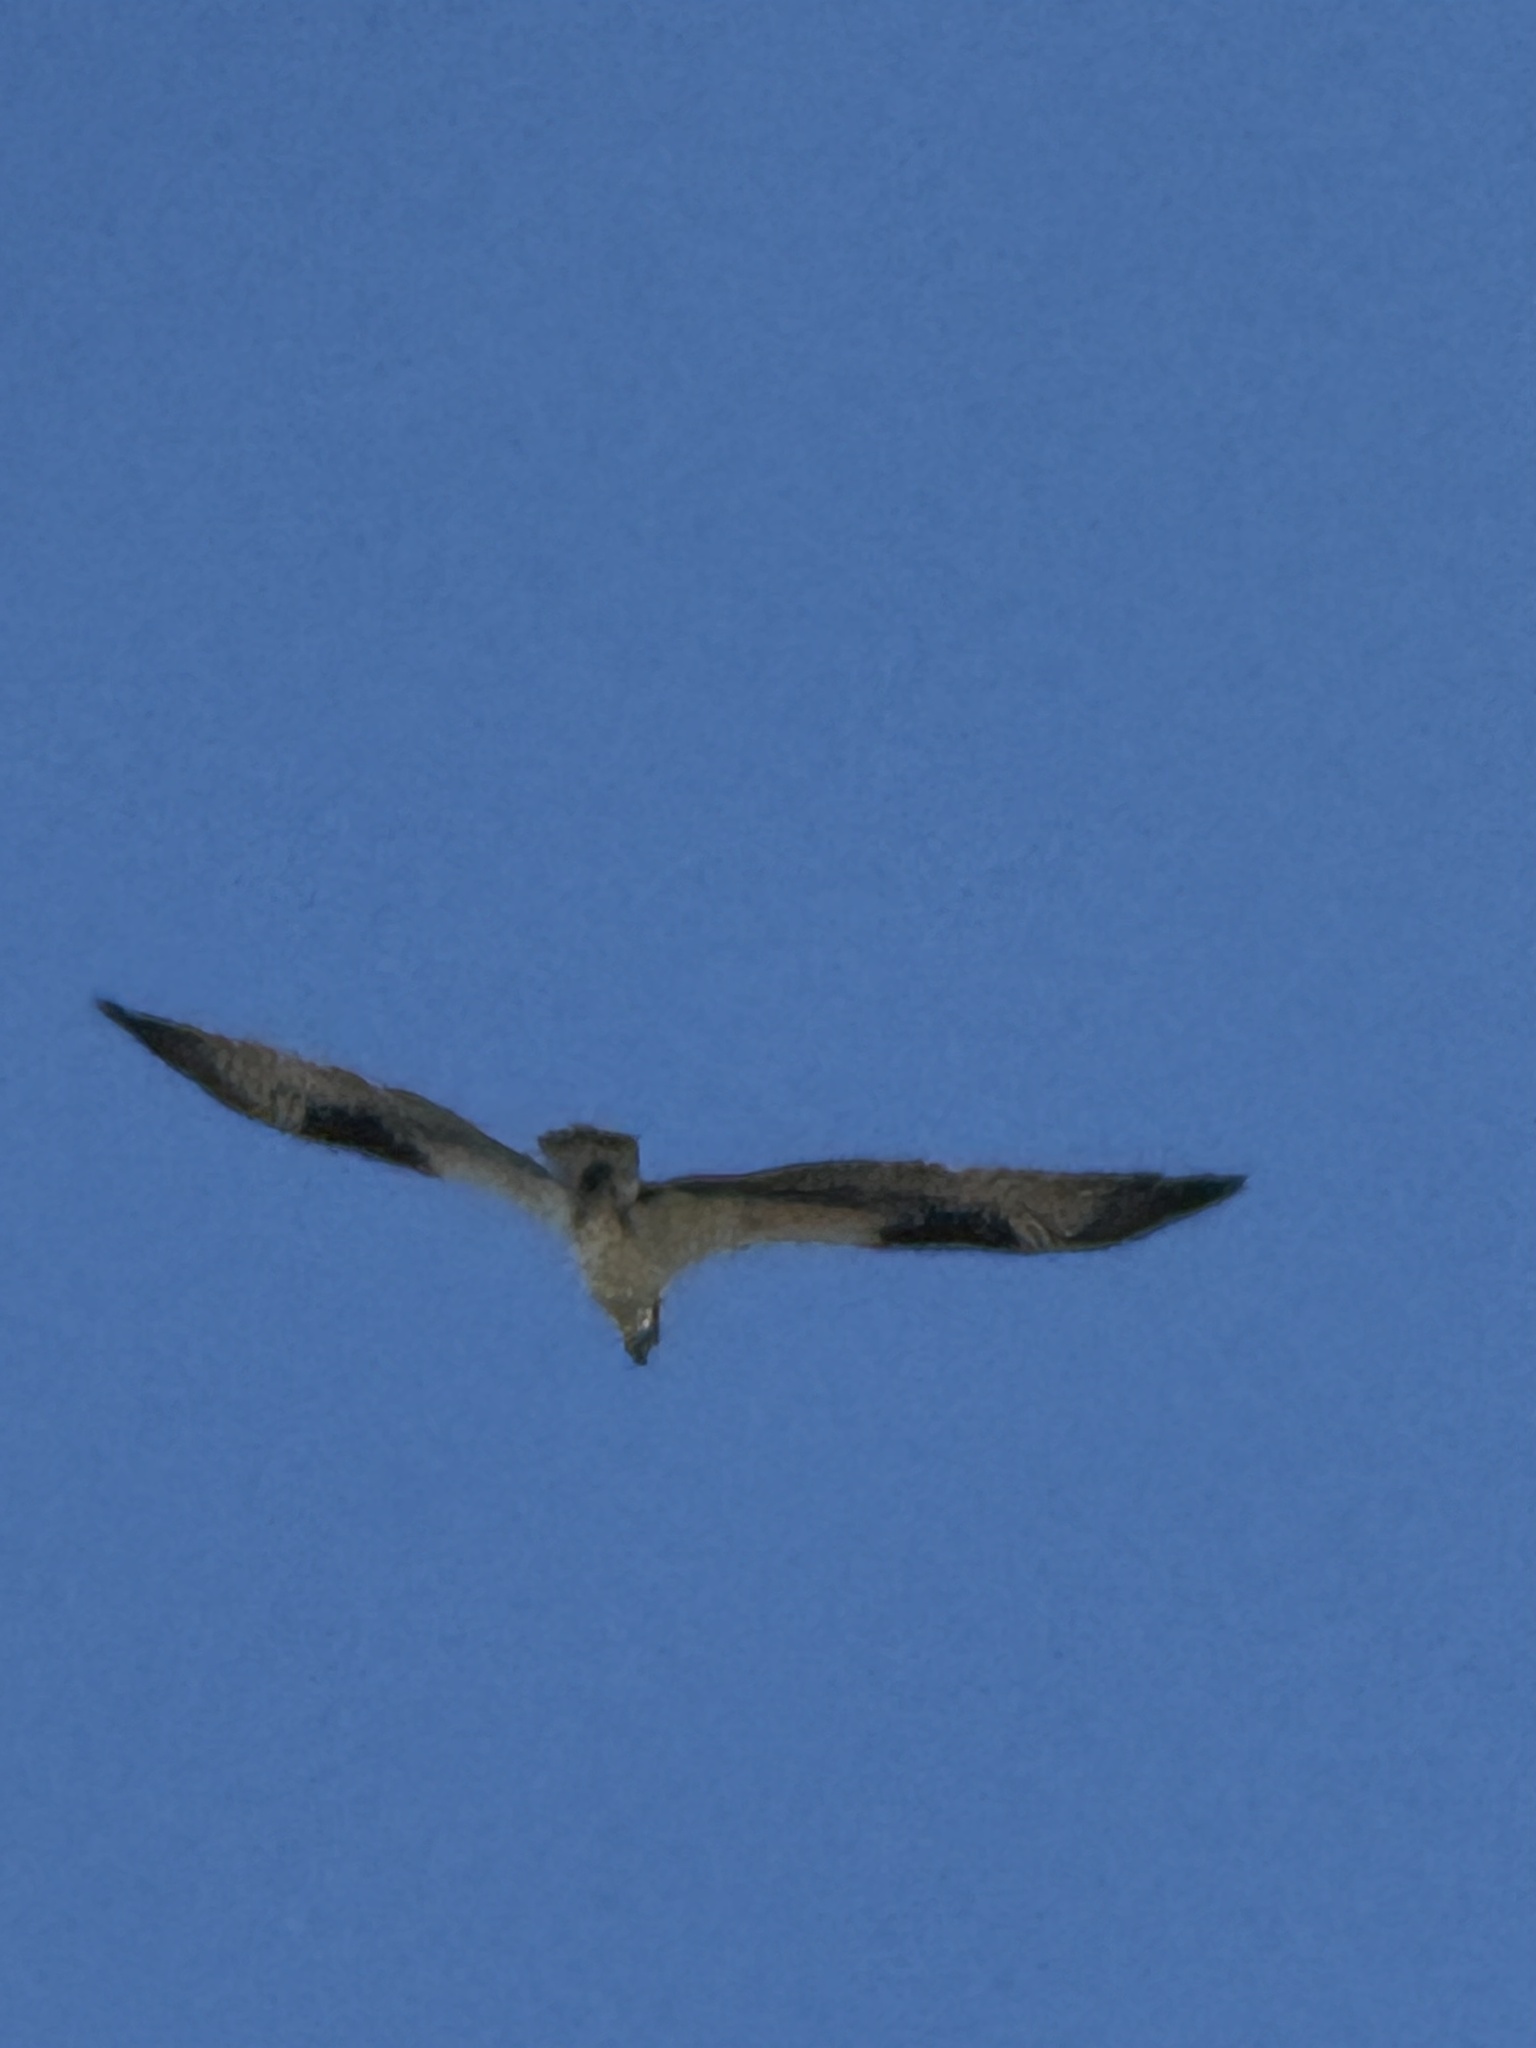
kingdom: Animalia
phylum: Chordata
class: Aves
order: Accipitriformes
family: Pandionidae
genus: Pandion
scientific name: Pandion haliaetus
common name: Osprey
